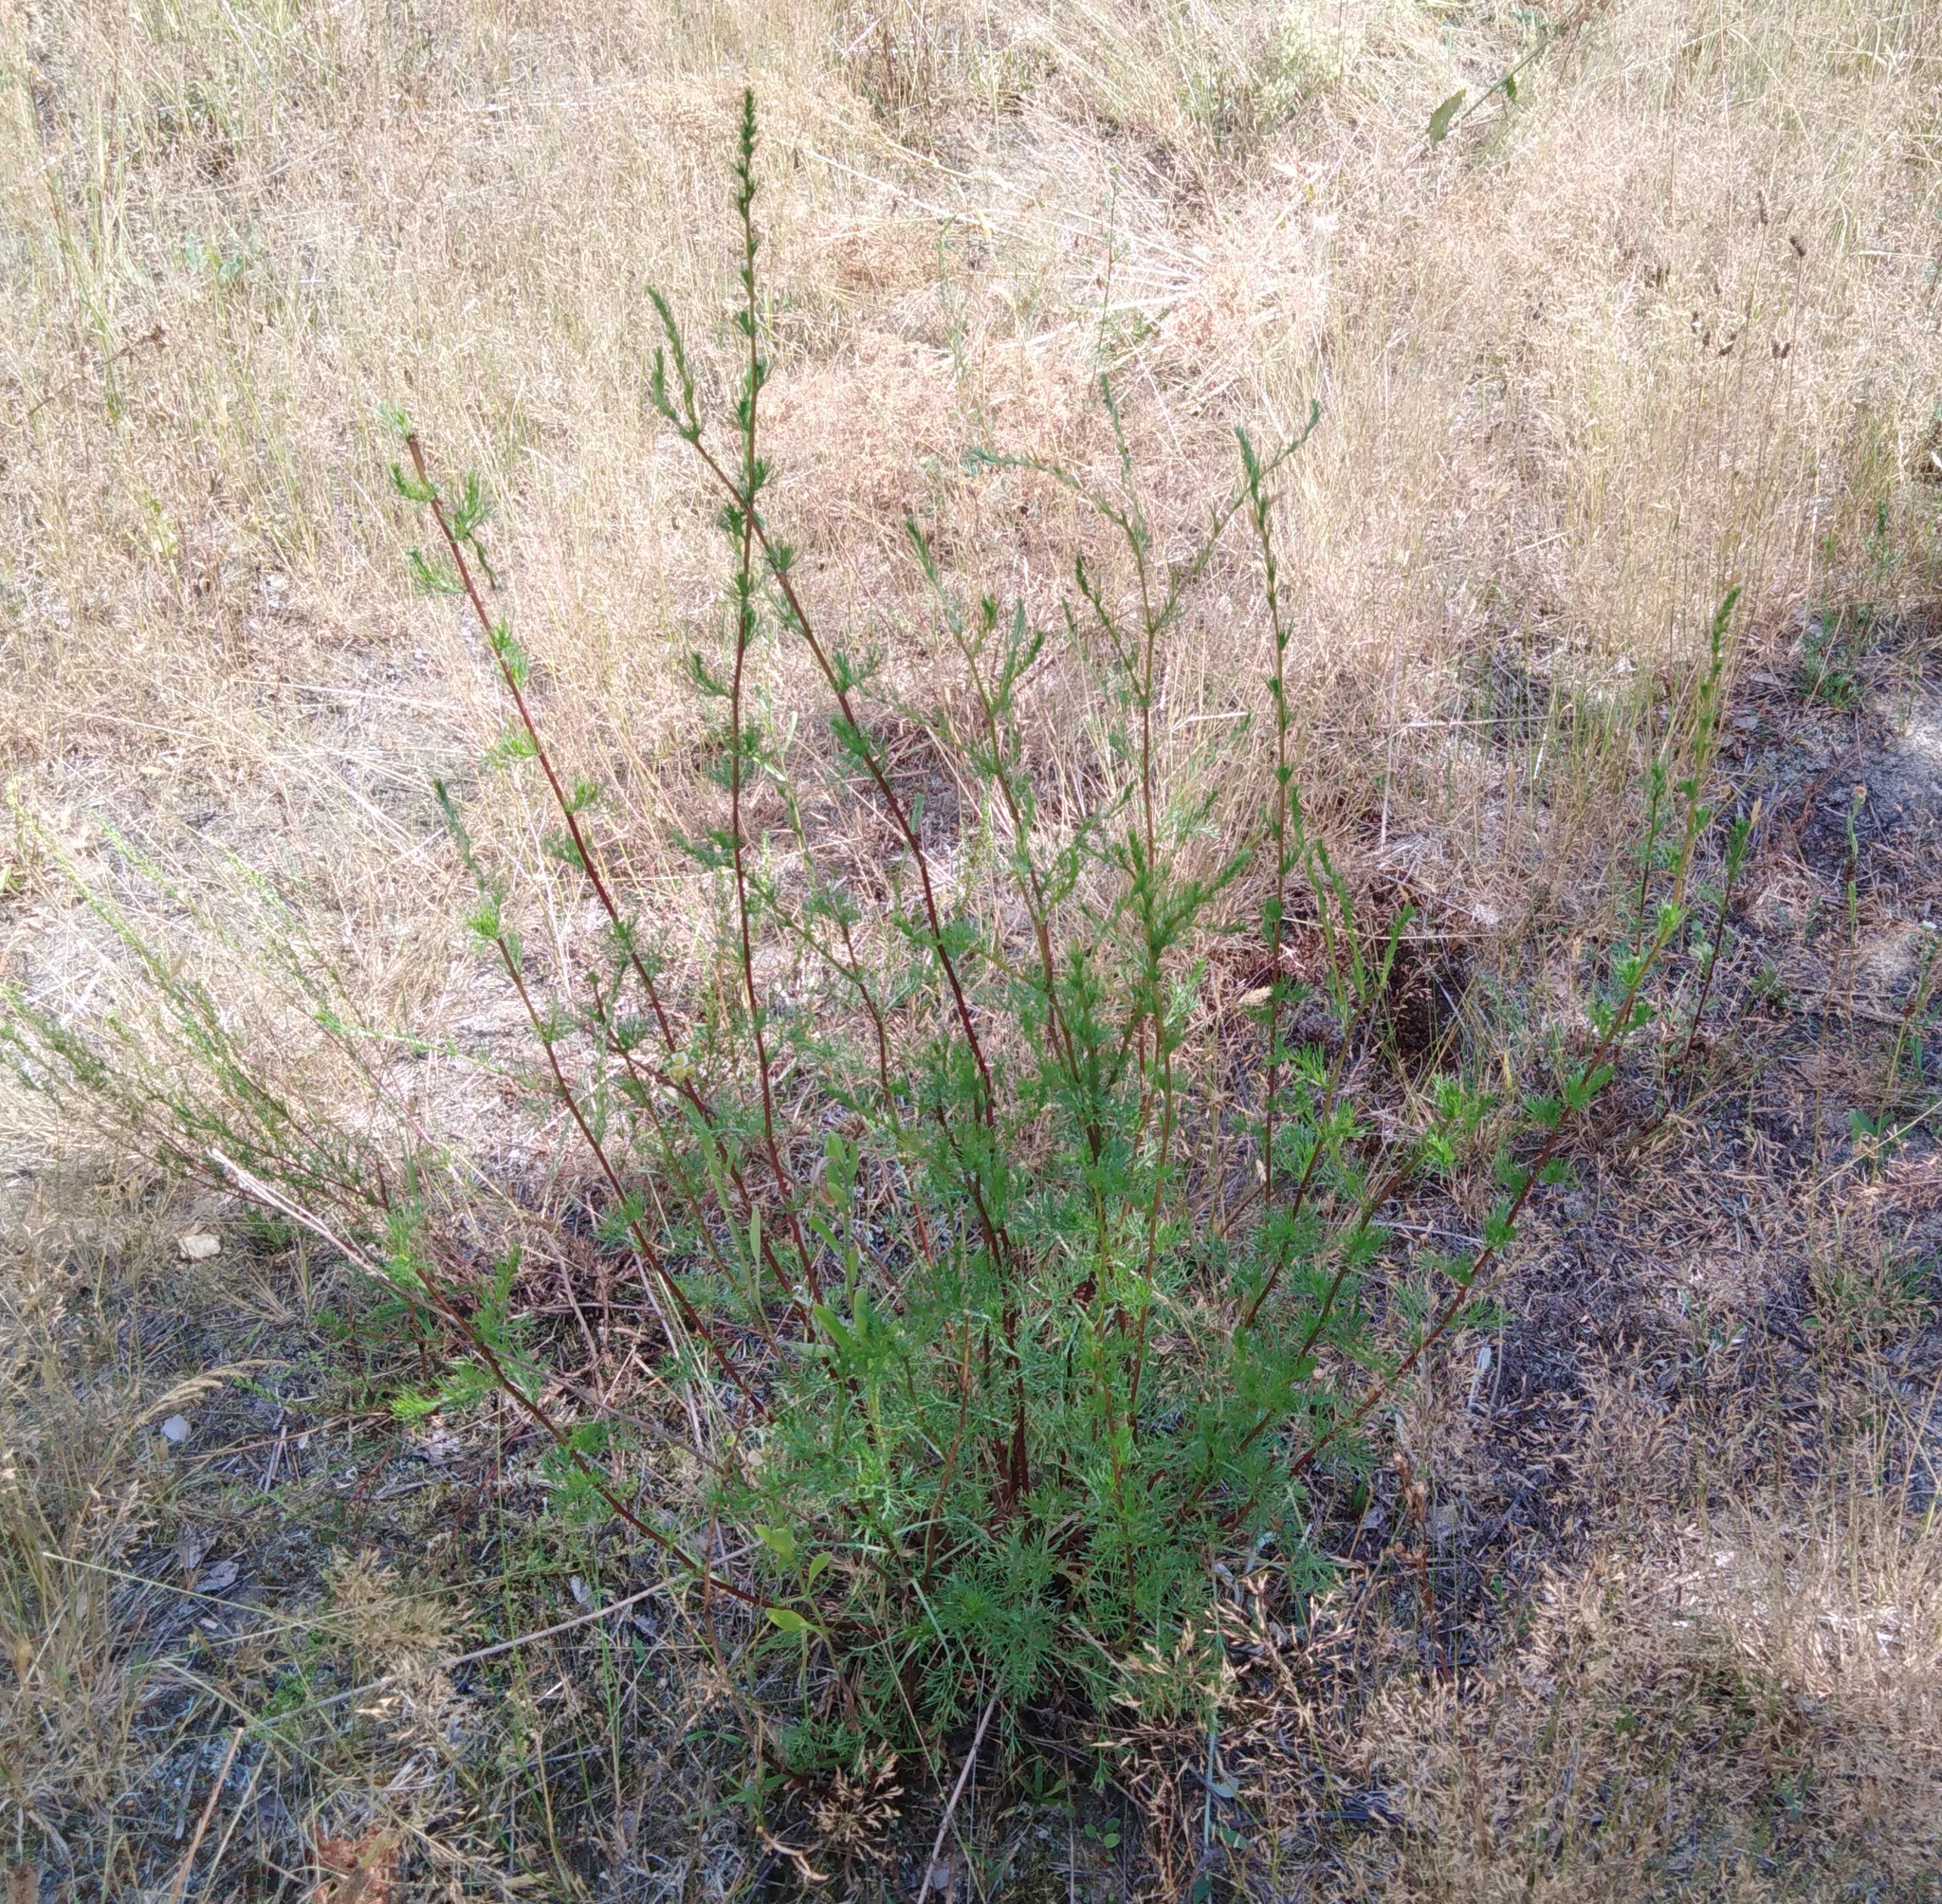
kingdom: Plantae
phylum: Tracheophyta
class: Magnoliopsida
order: Asterales
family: Asteraceae
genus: Artemisia
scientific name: Artemisia campestris
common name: Field wormwood
